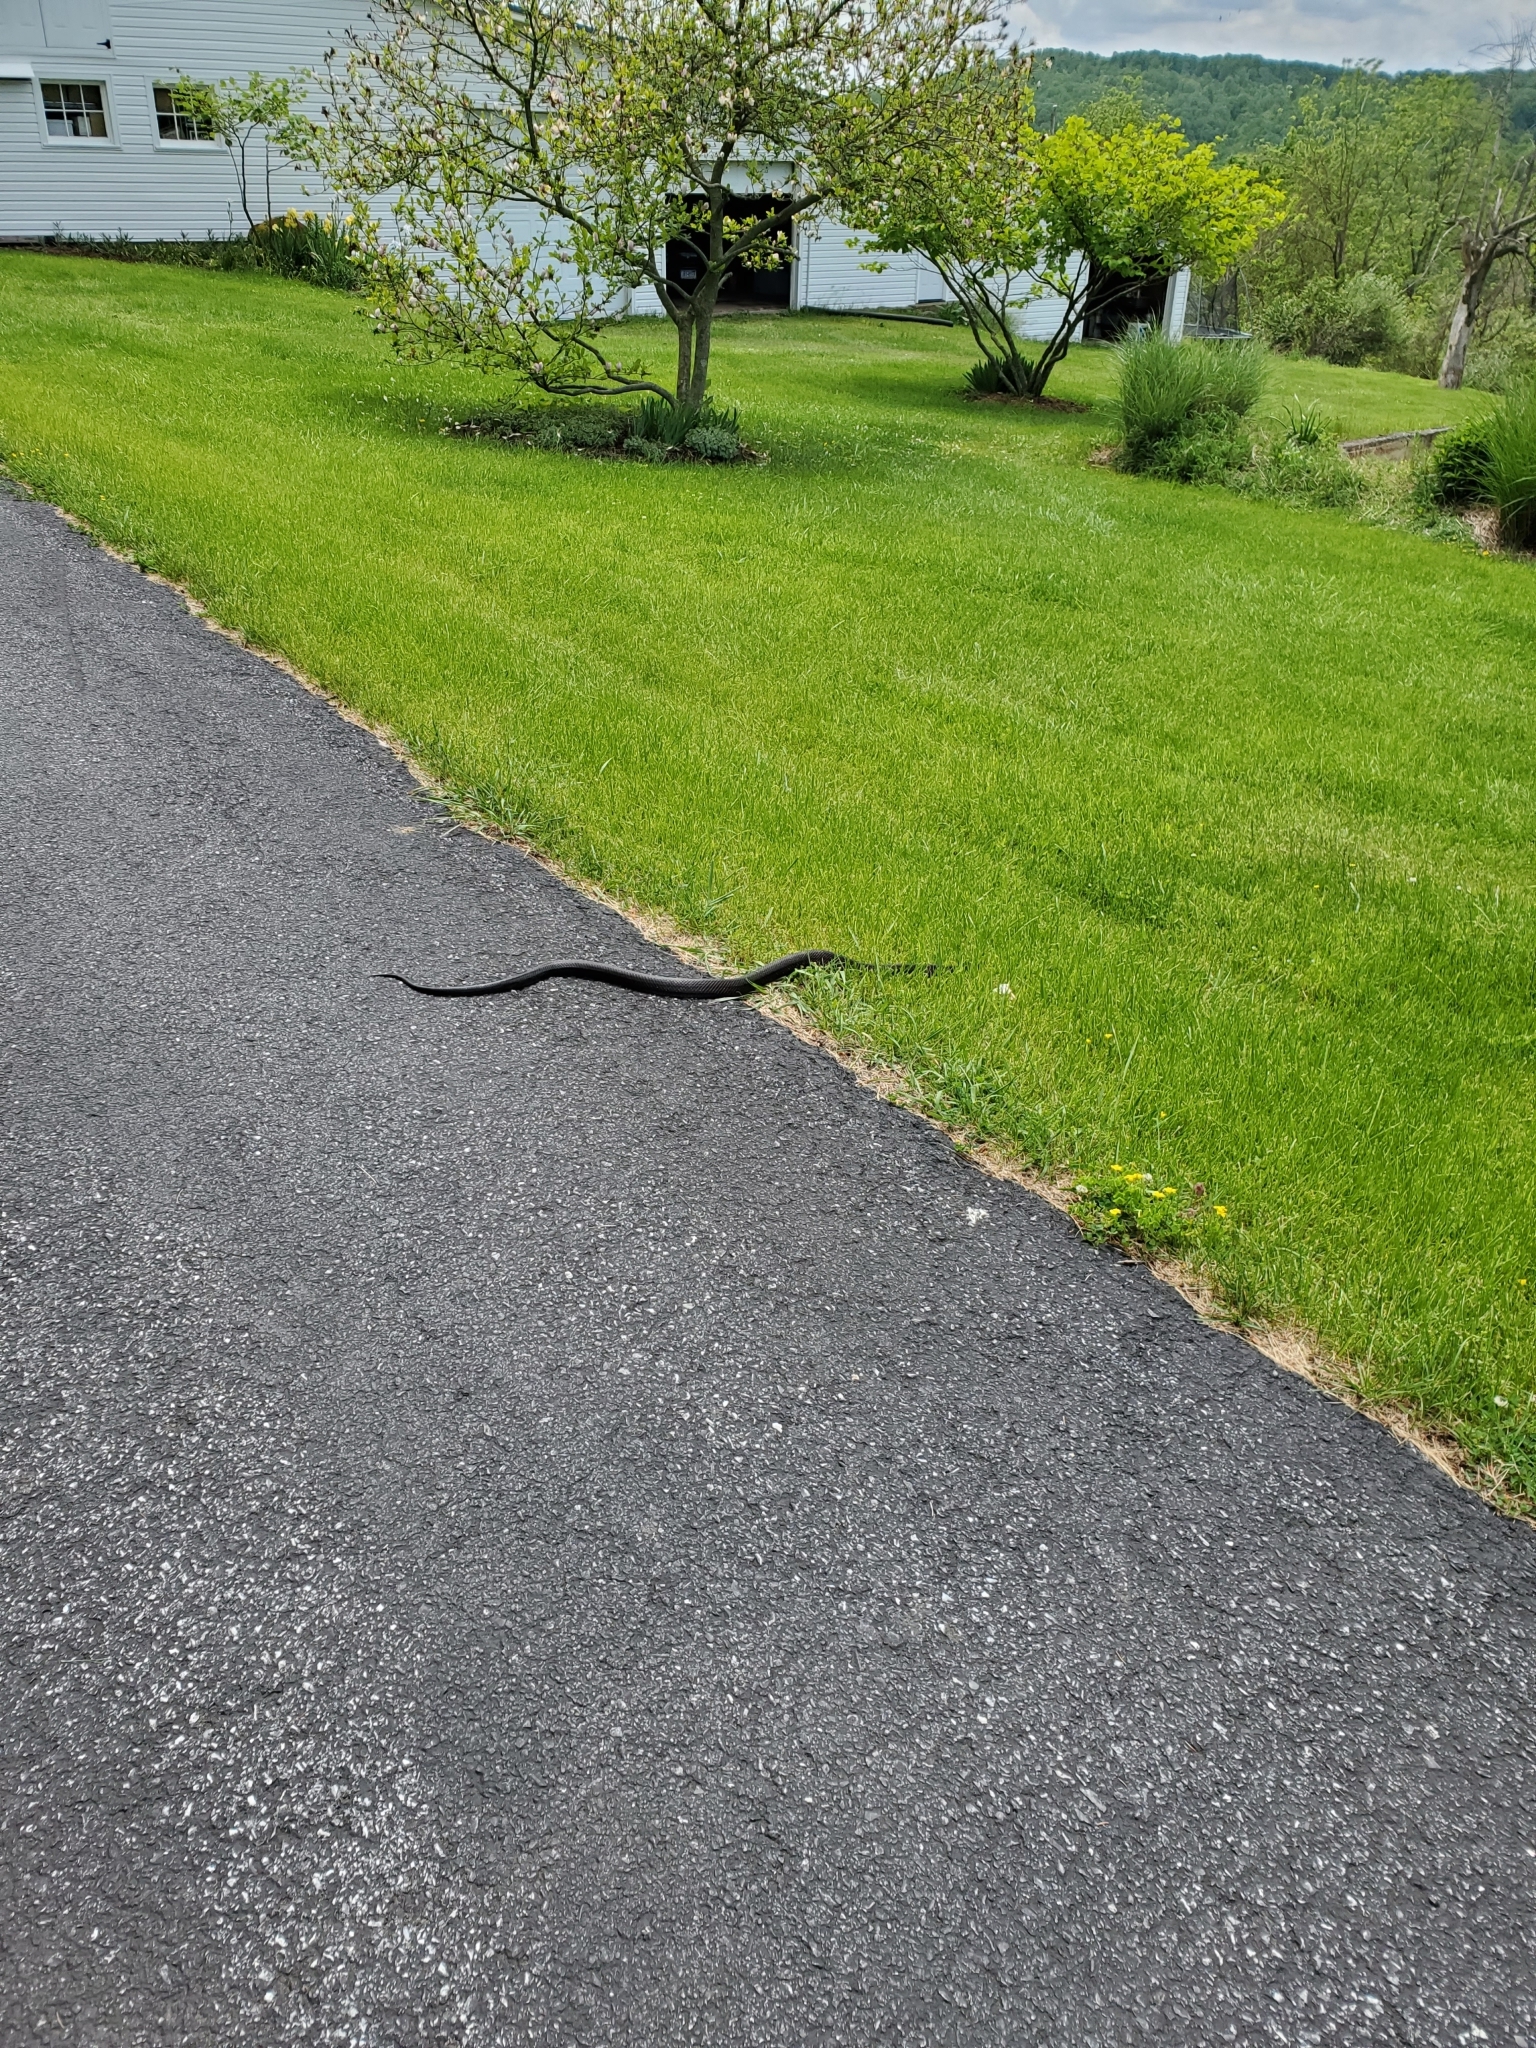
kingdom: Animalia
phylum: Chordata
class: Squamata
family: Colubridae
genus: Pantherophis
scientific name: Pantherophis alleghaniensis
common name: Eastern rat snake
